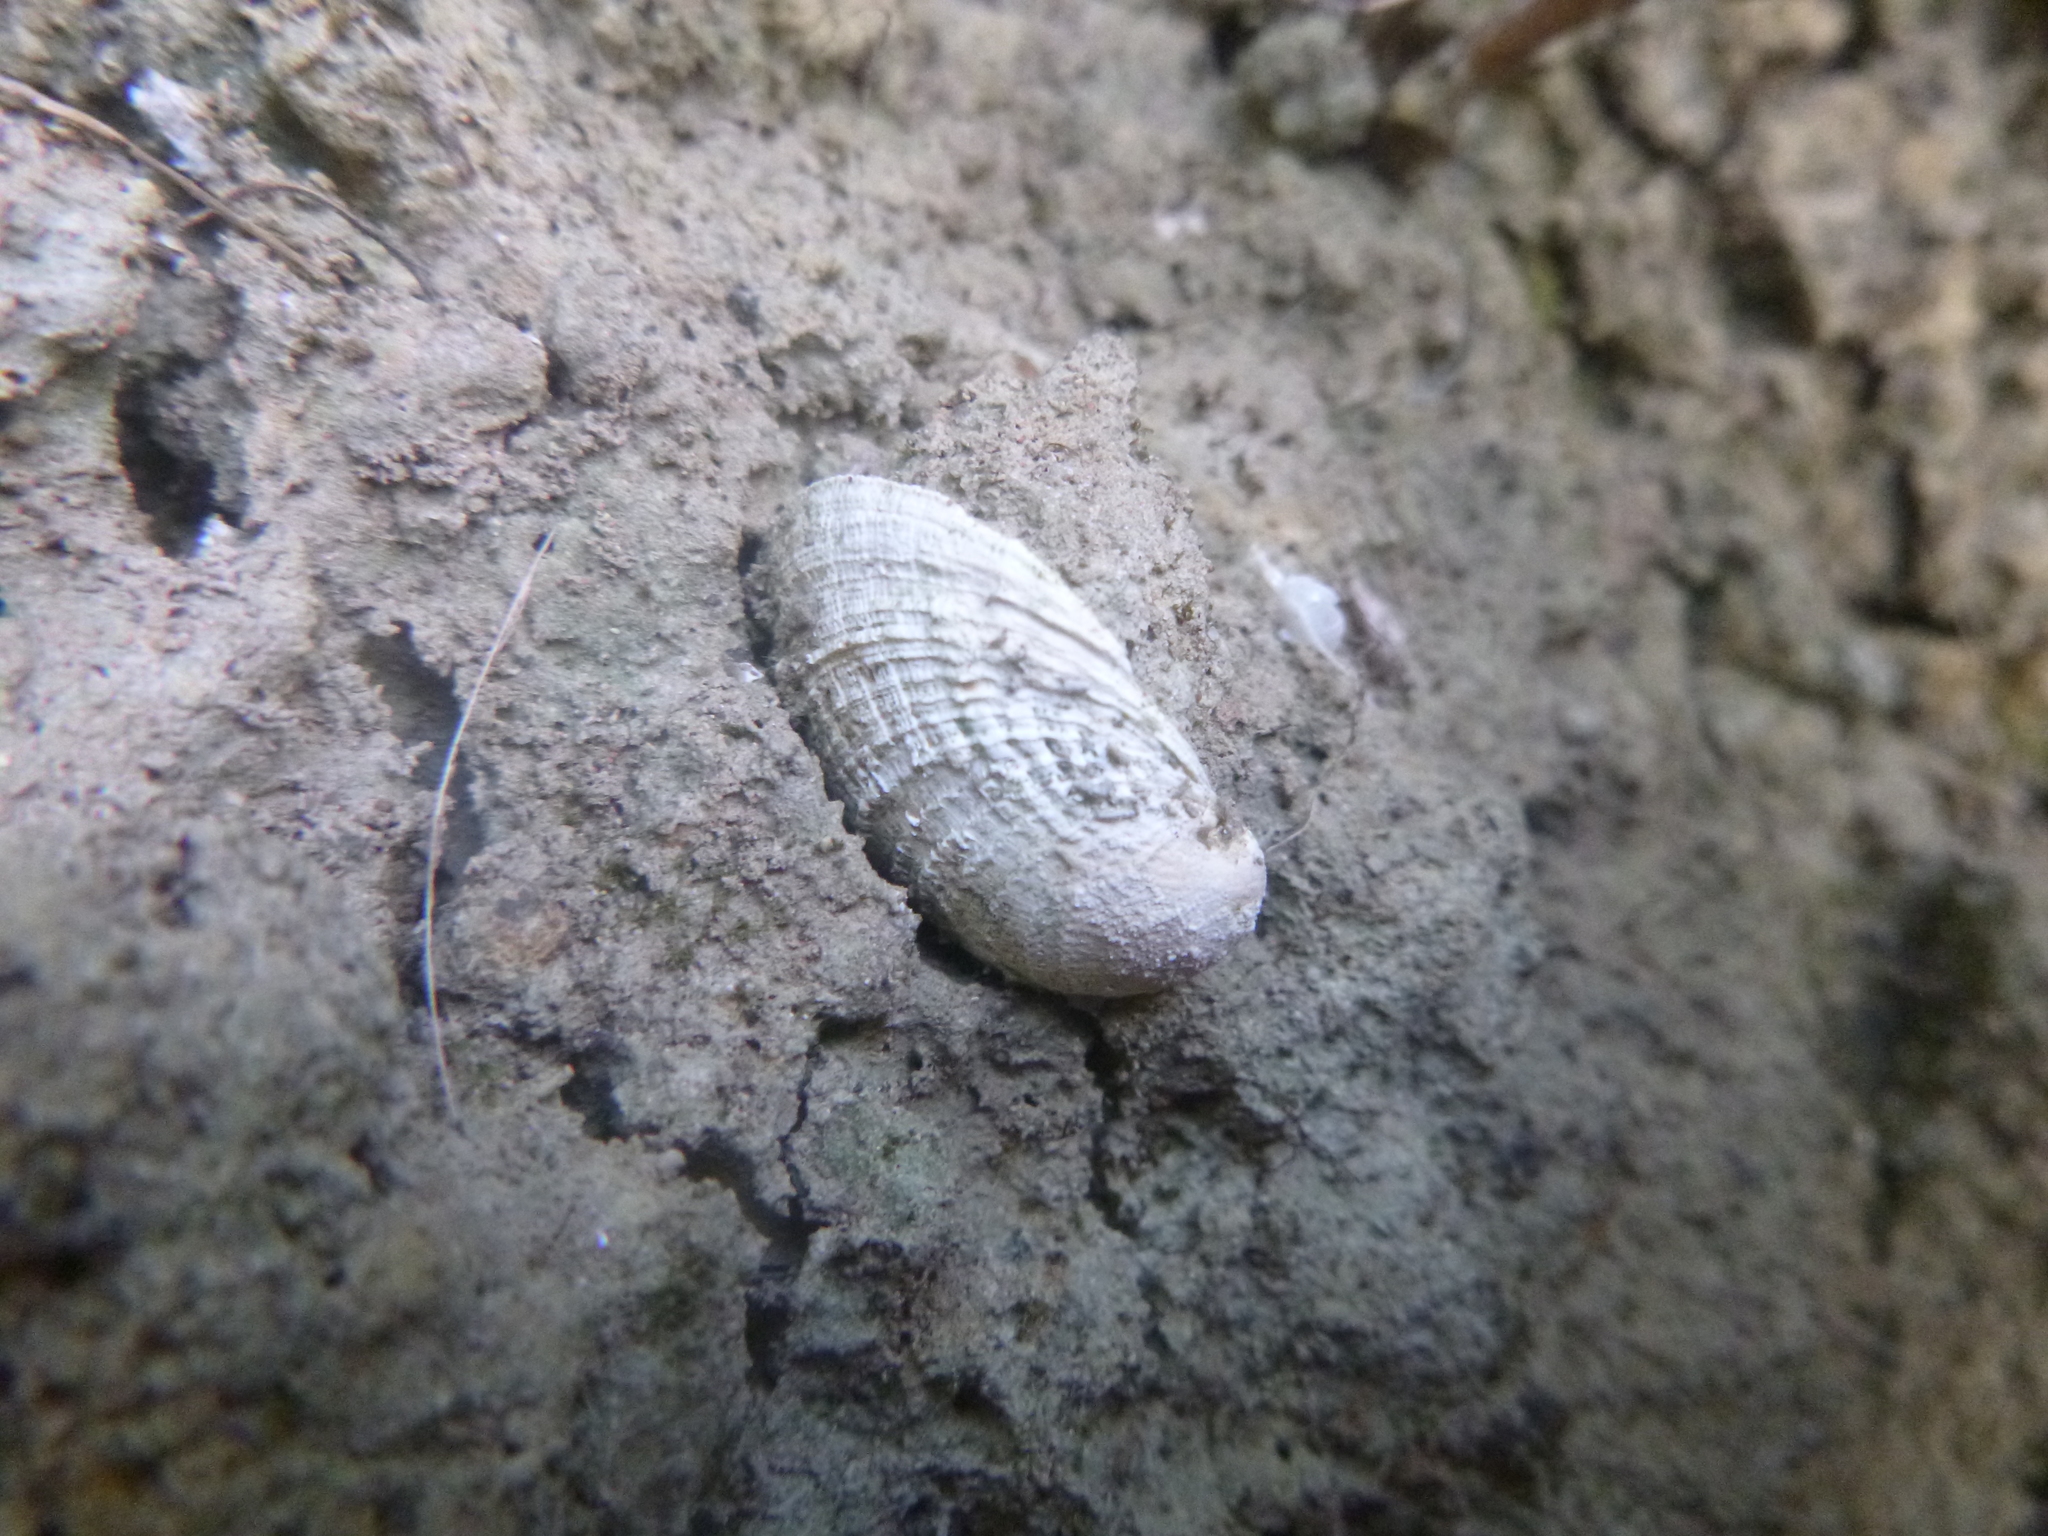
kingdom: Animalia
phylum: Mollusca
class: Bivalvia
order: Venerida
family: Veneridae
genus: Austrovenus
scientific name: Austrovenus stutchburyi
